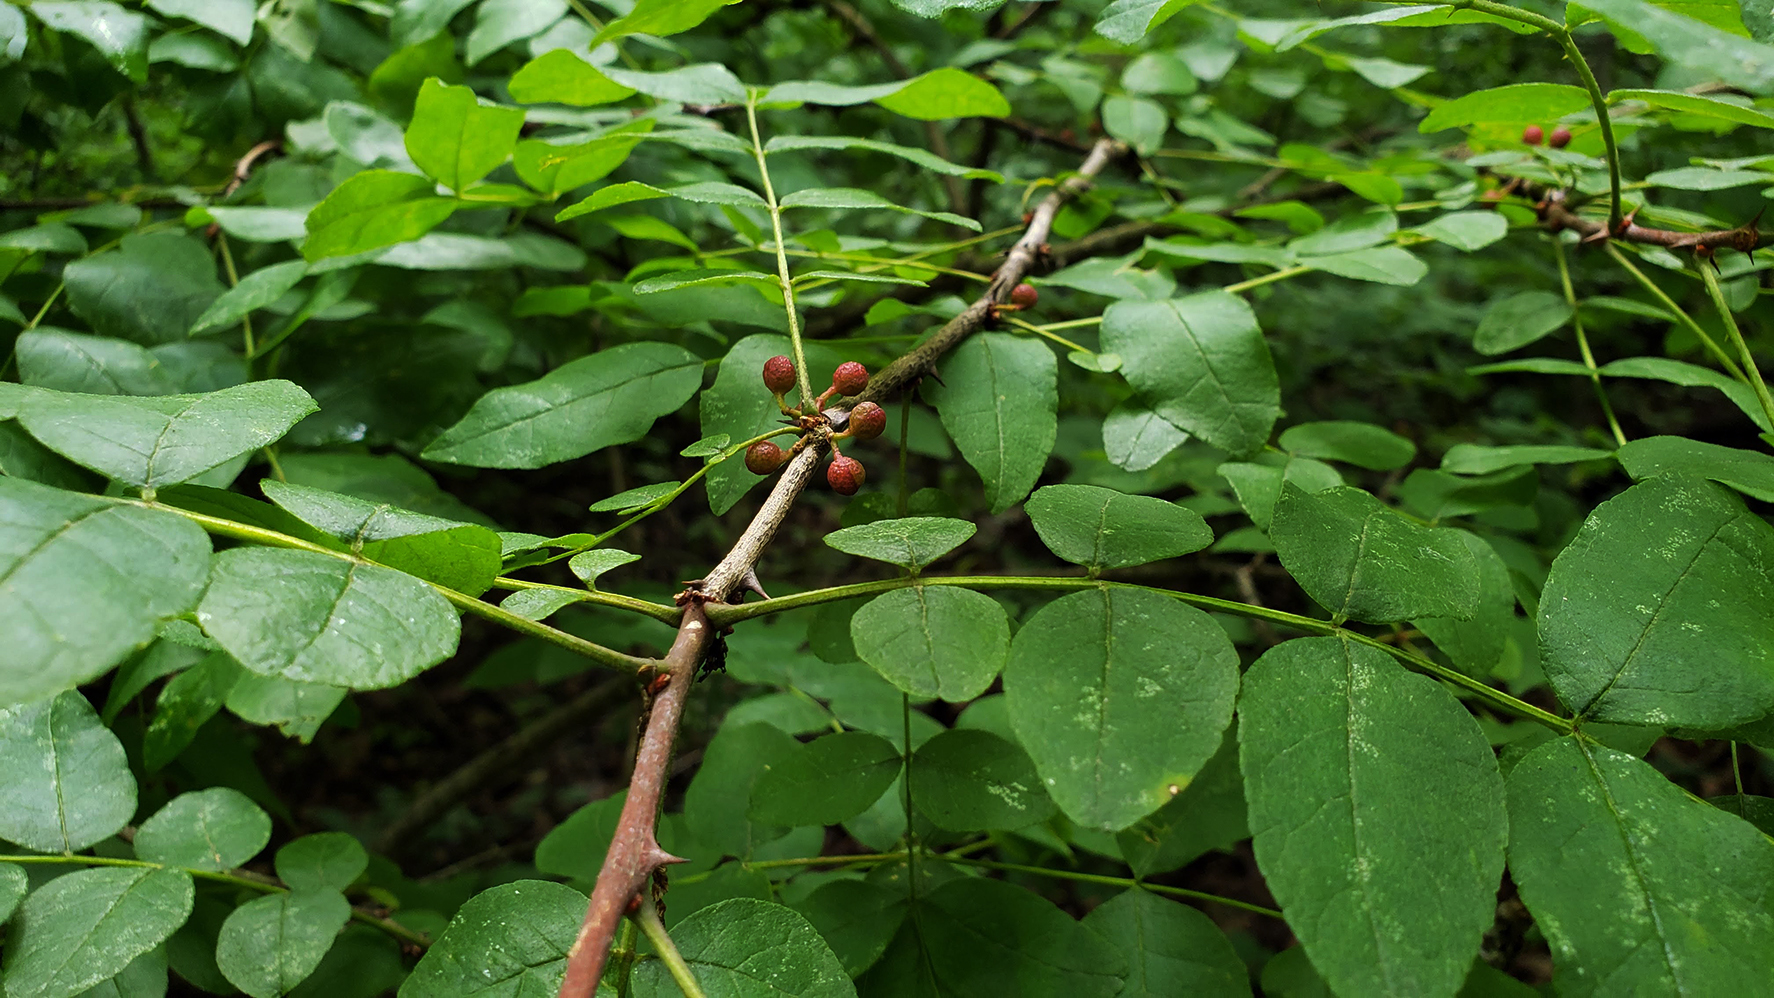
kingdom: Plantae
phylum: Tracheophyta
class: Magnoliopsida
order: Sapindales
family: Rutaceae
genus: Zanthoxylum
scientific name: Zanthoxylum americanum
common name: Northern prickly-ash
